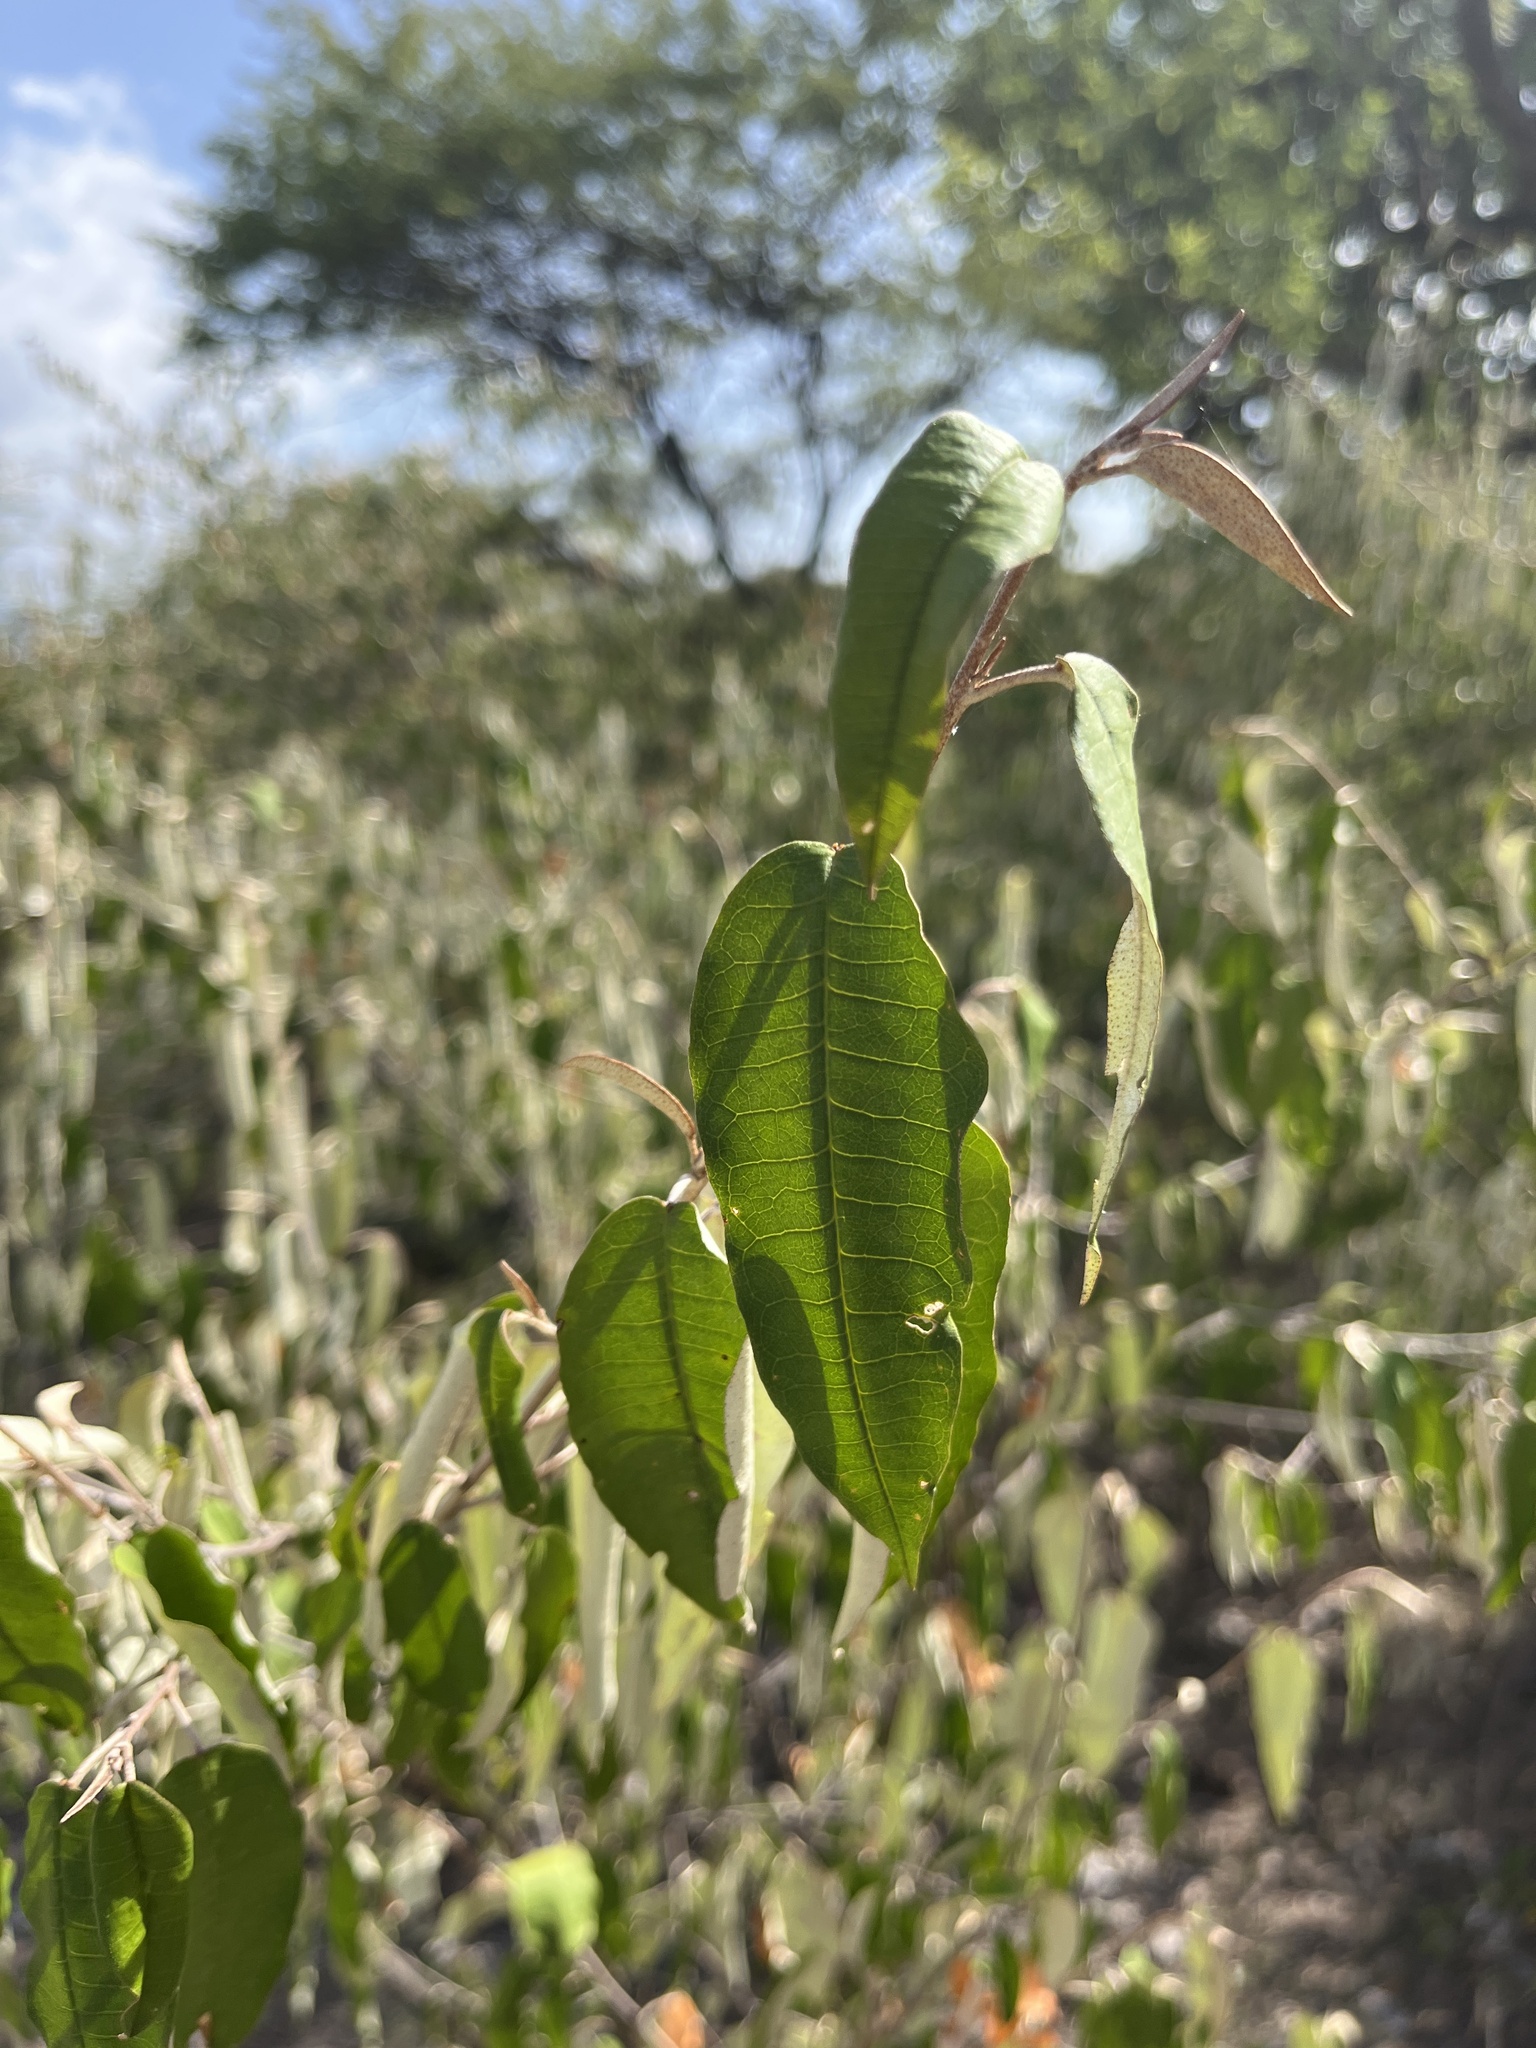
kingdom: Plantae
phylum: Tracheophyta
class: Magnoliopsida
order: Malpighiales
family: Euphorbiaceae
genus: Croton
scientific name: Croton dichogamus
